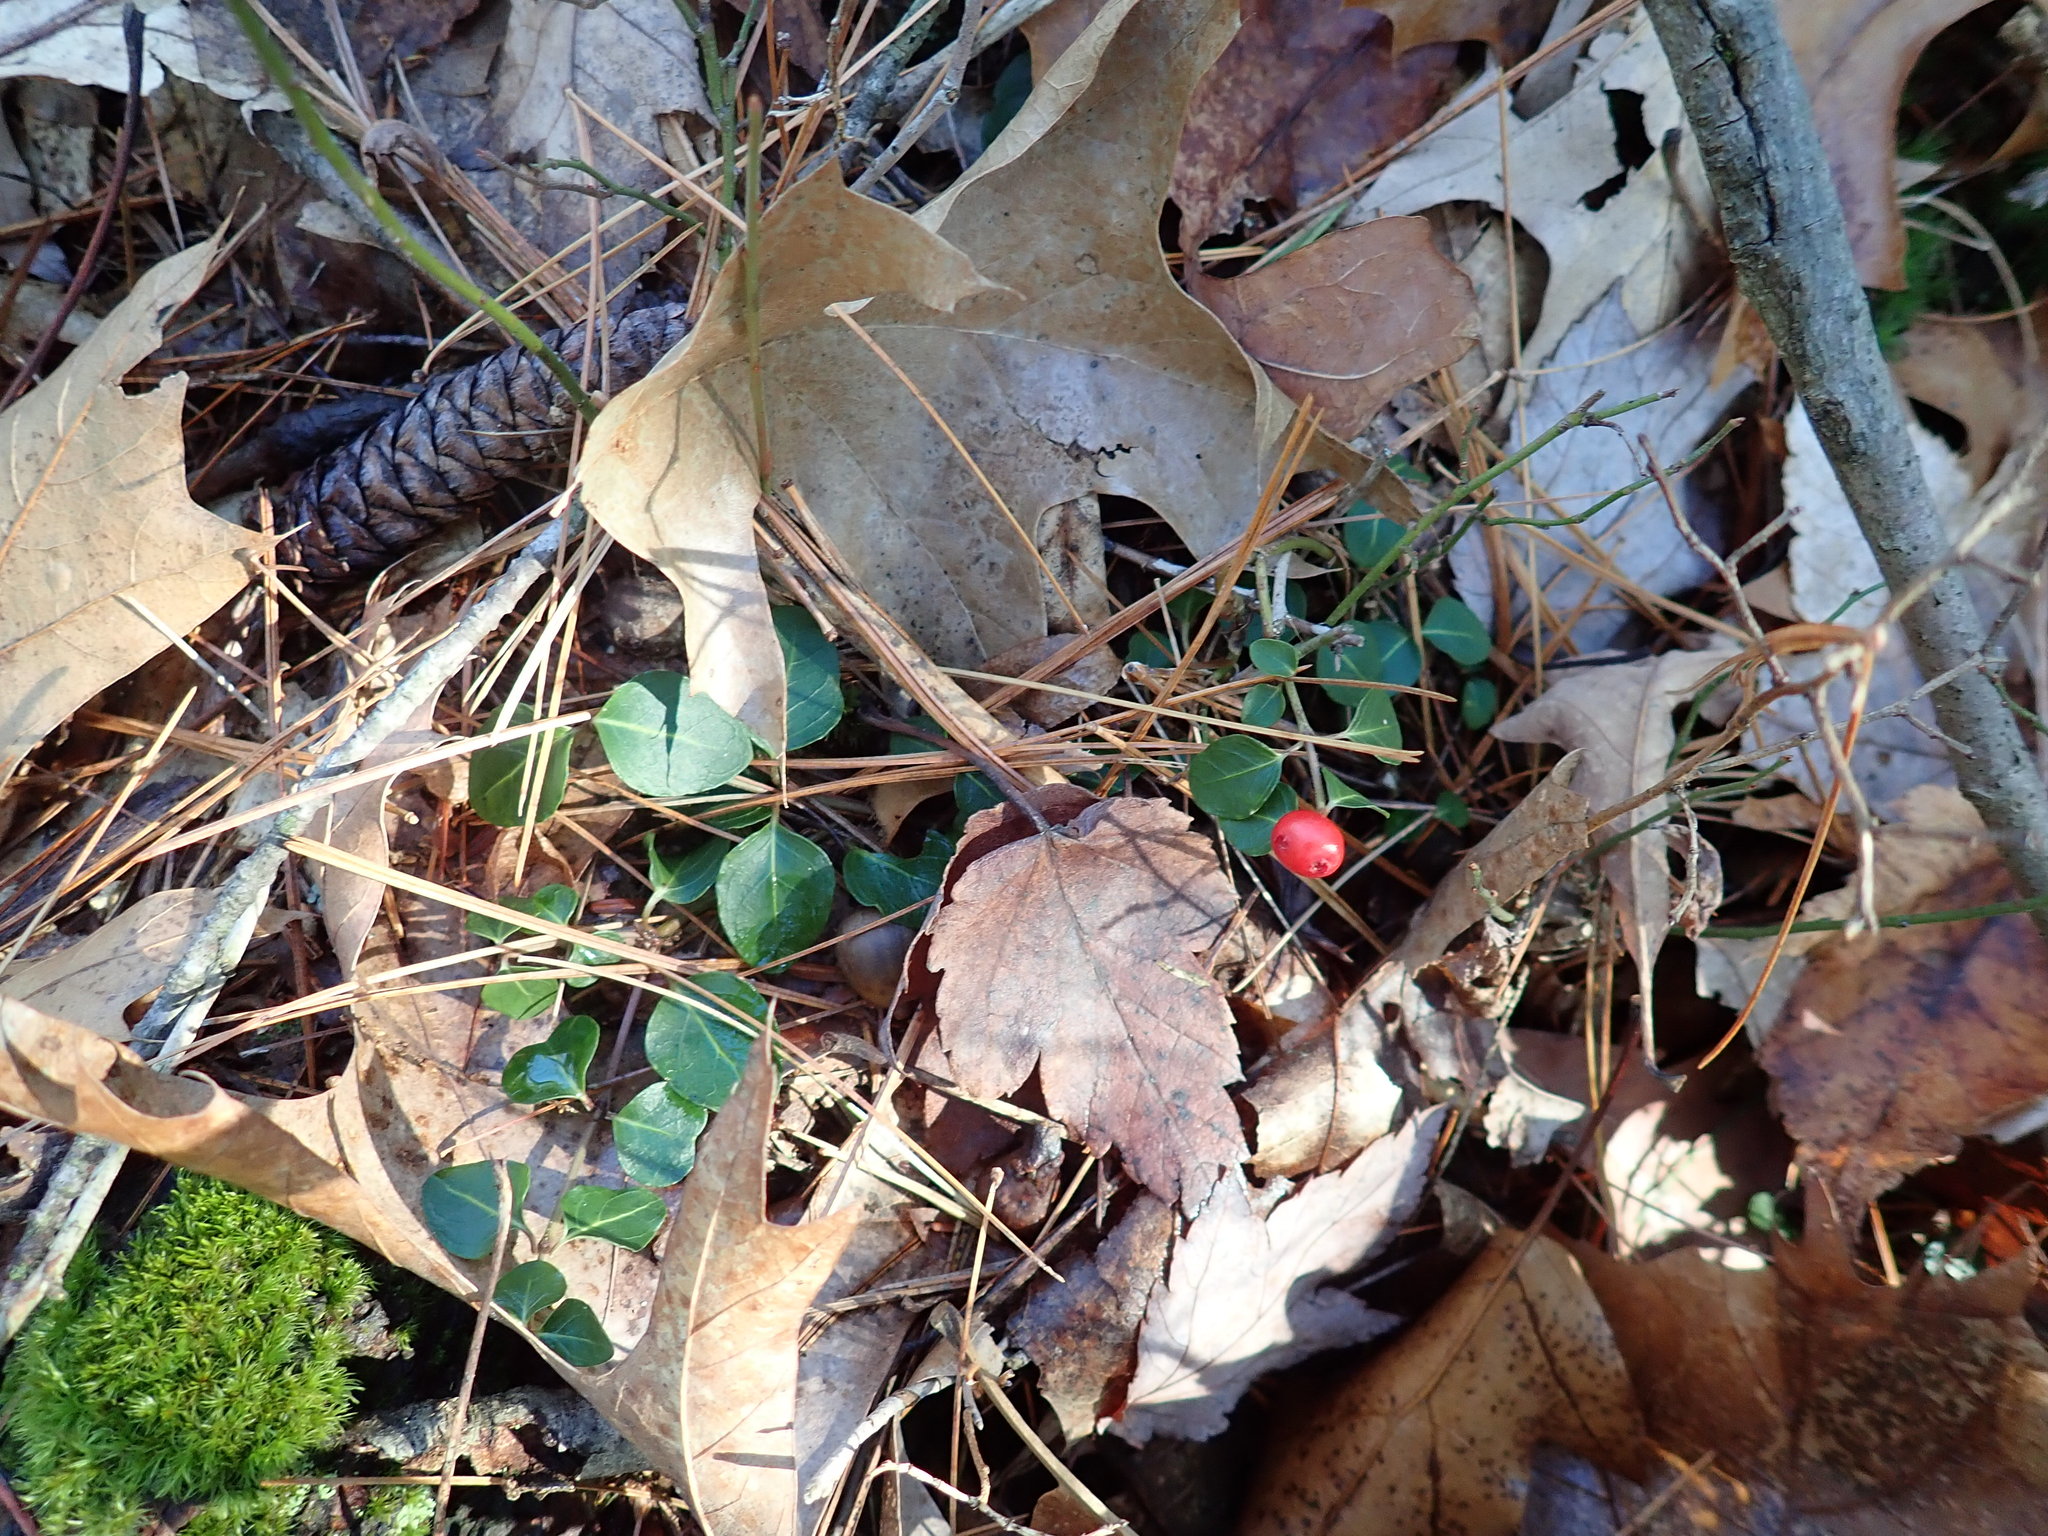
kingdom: Plantae
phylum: Tracheophyta
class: Magnoliopsida
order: Gentianales
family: Rubiaceae
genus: Mitchella
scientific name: Mitchella repens
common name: Partridge-berry
